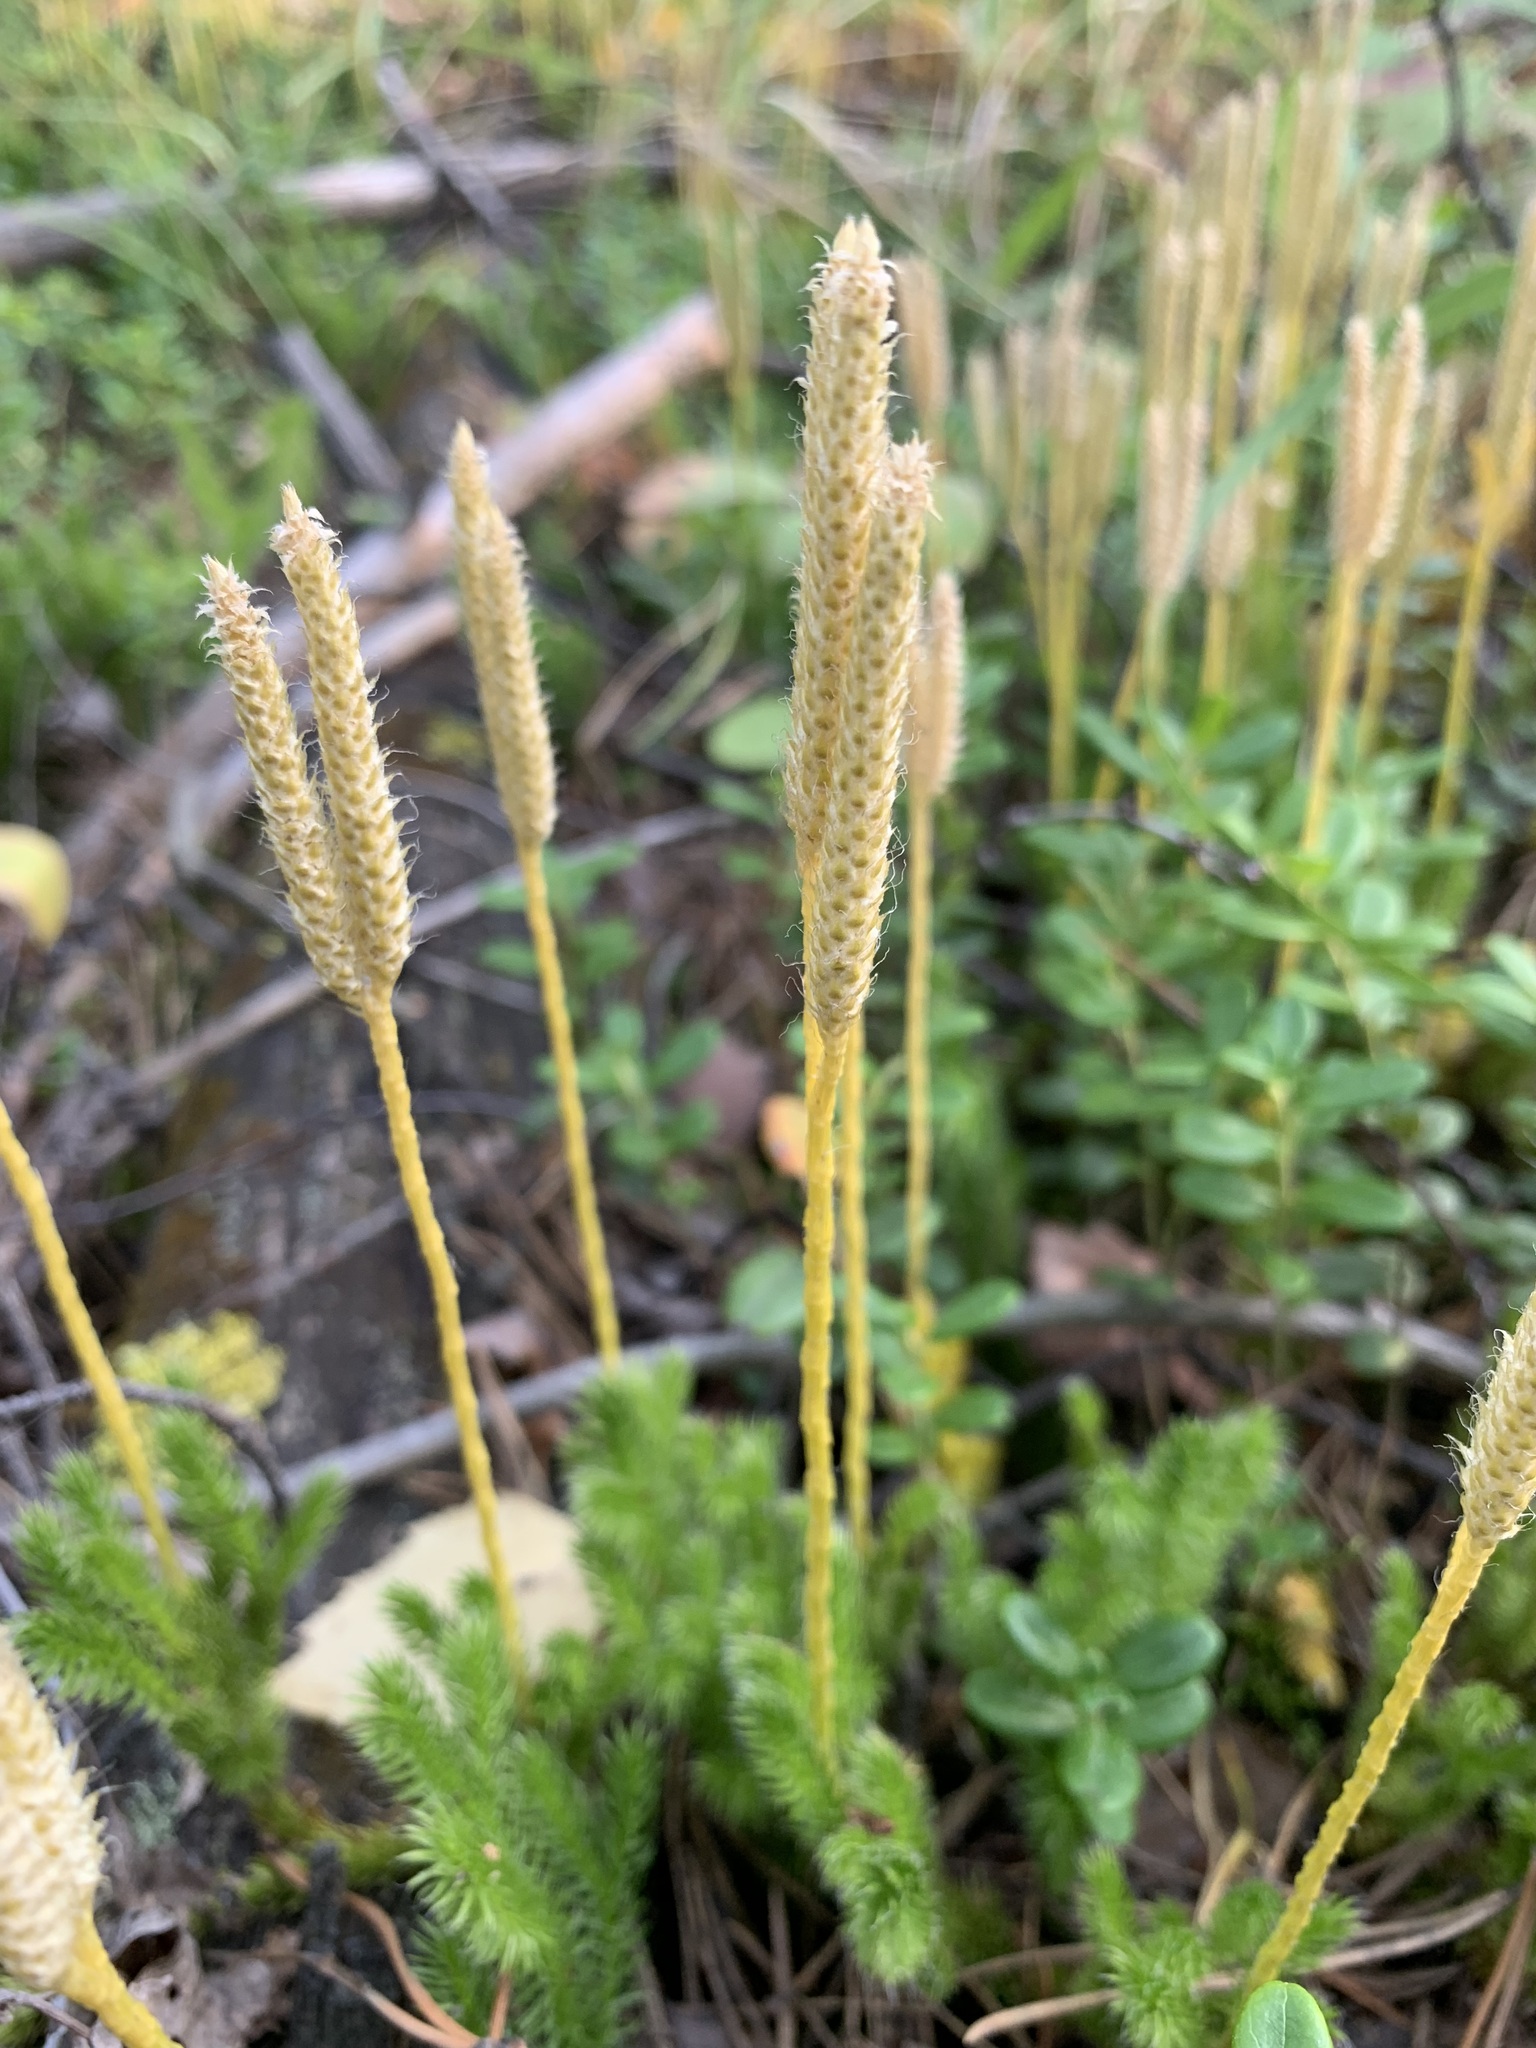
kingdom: Plantae
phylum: Tracheophyta
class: Lycopodiopsida
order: Lycopodiales
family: Lycopodiaceae
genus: Lycopodium
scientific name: Lycopodium clavatum
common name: Stag's-horn clubmoss
